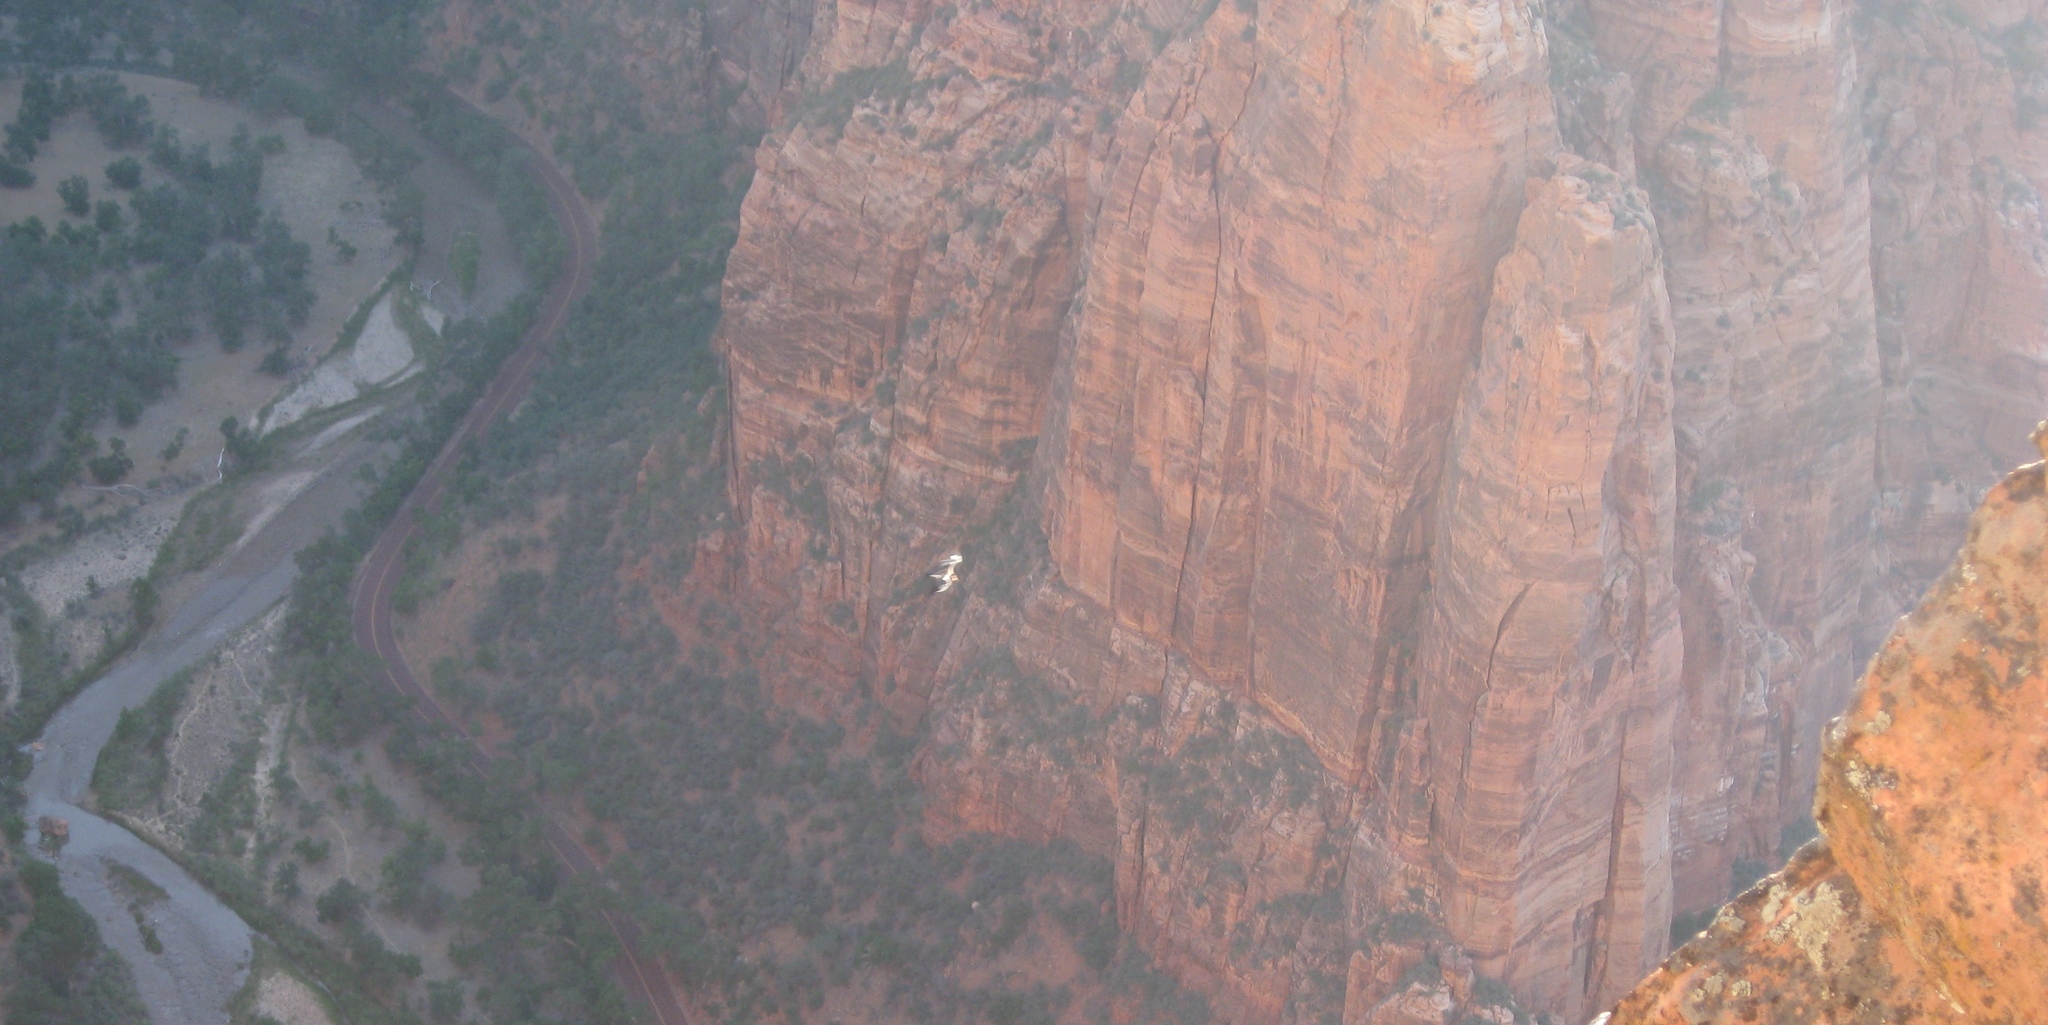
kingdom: Animalia
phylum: Chordata
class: Aves
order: Accipitriformes
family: Cathartidae
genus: Gymnogyps
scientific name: Gymnogyps californianus
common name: California condor
